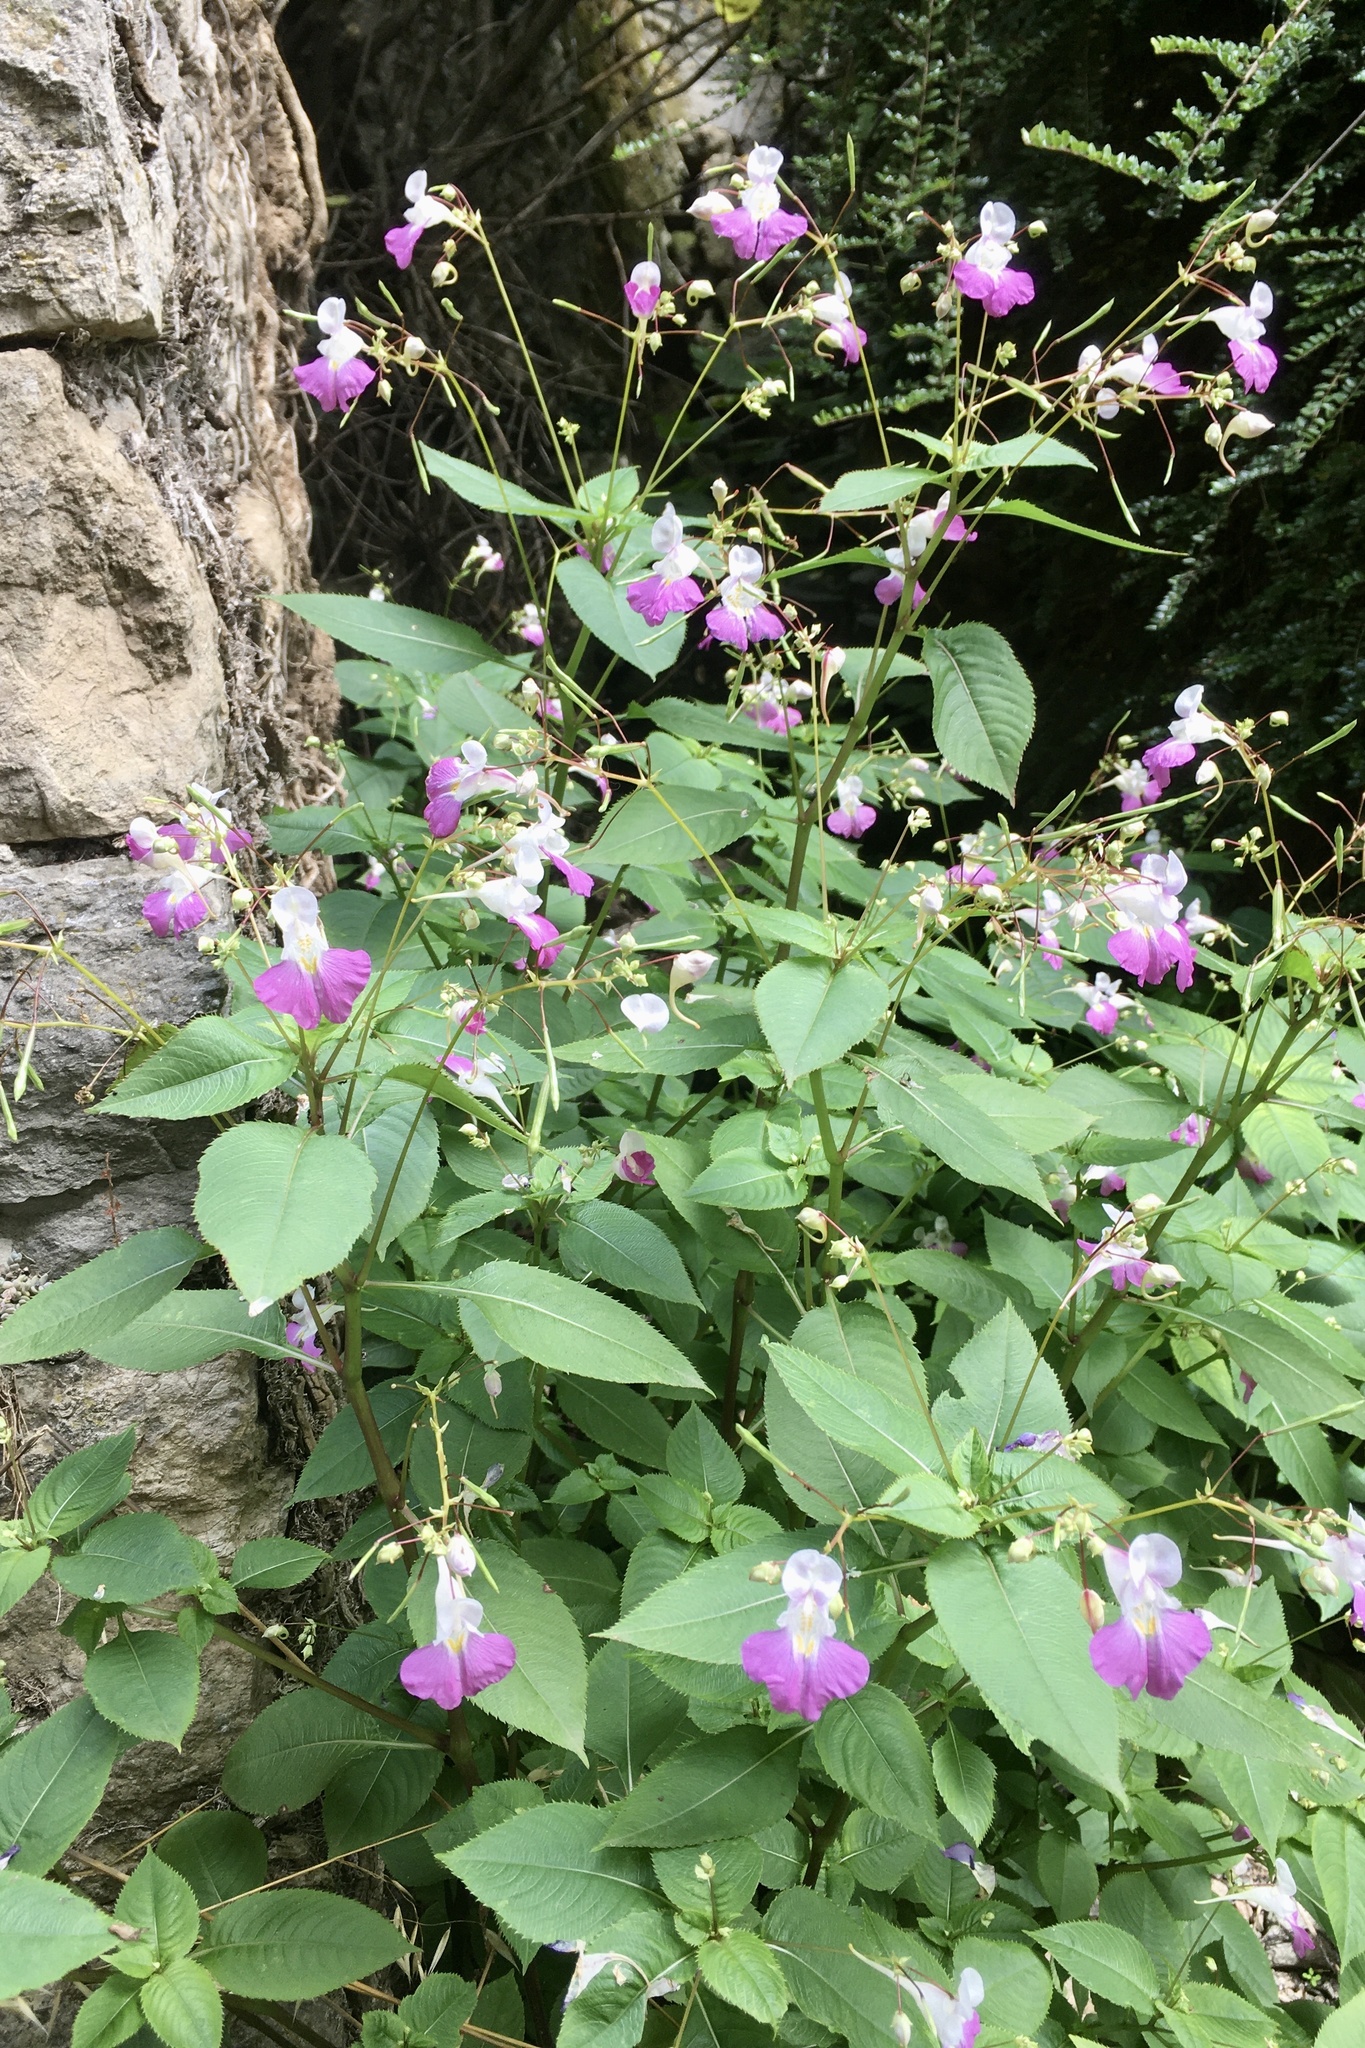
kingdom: Plantae
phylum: Tracheophyta
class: Magnoliopsida
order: Ericales
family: Balsaminaceae
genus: Impatiens
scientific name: Impatiens balfourii
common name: Balfour's touch-me-not
